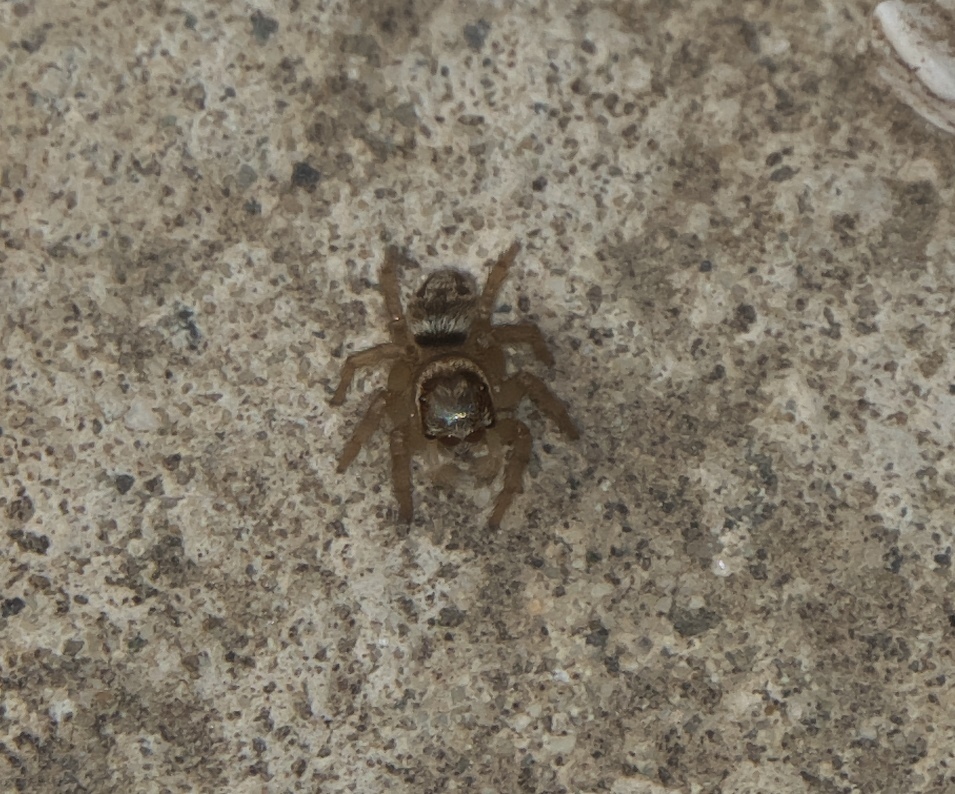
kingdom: Animalia
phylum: Arthropoda
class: Arachnida
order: Araneae
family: Salticidae
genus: Maratus
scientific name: Maratus griseus
